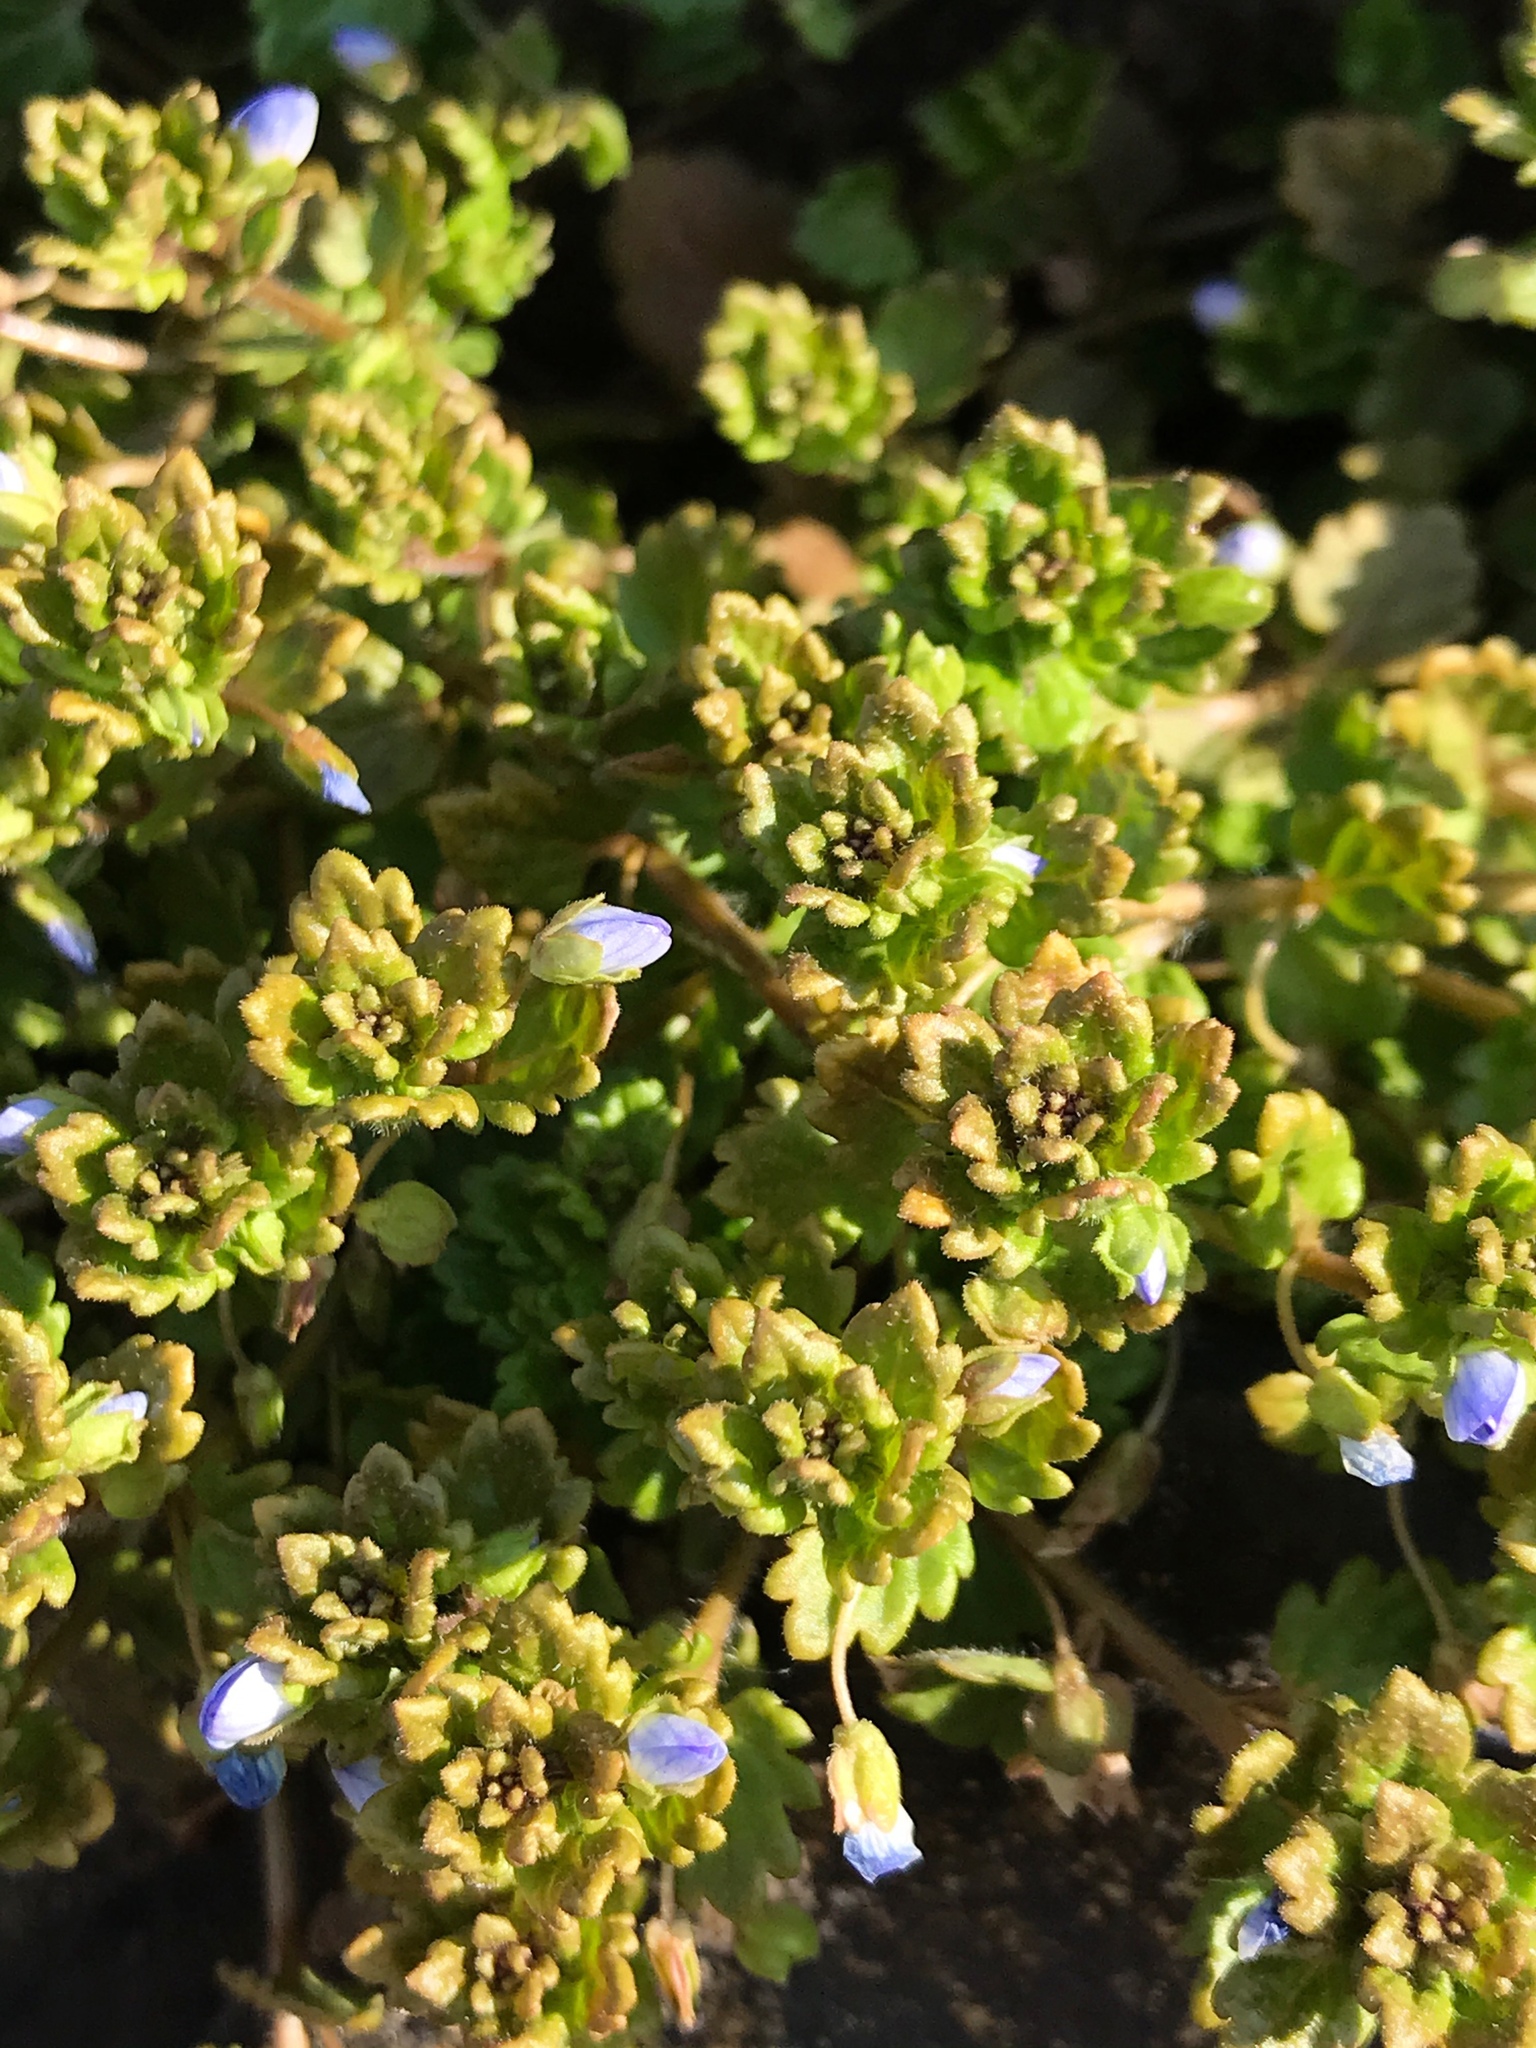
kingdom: Plantae
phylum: Tracheophyta
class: Magnoliopsida
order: Lamiales
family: Plantaginaceae
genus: Veronica
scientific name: Veronica persica
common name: Common field-speedwell
